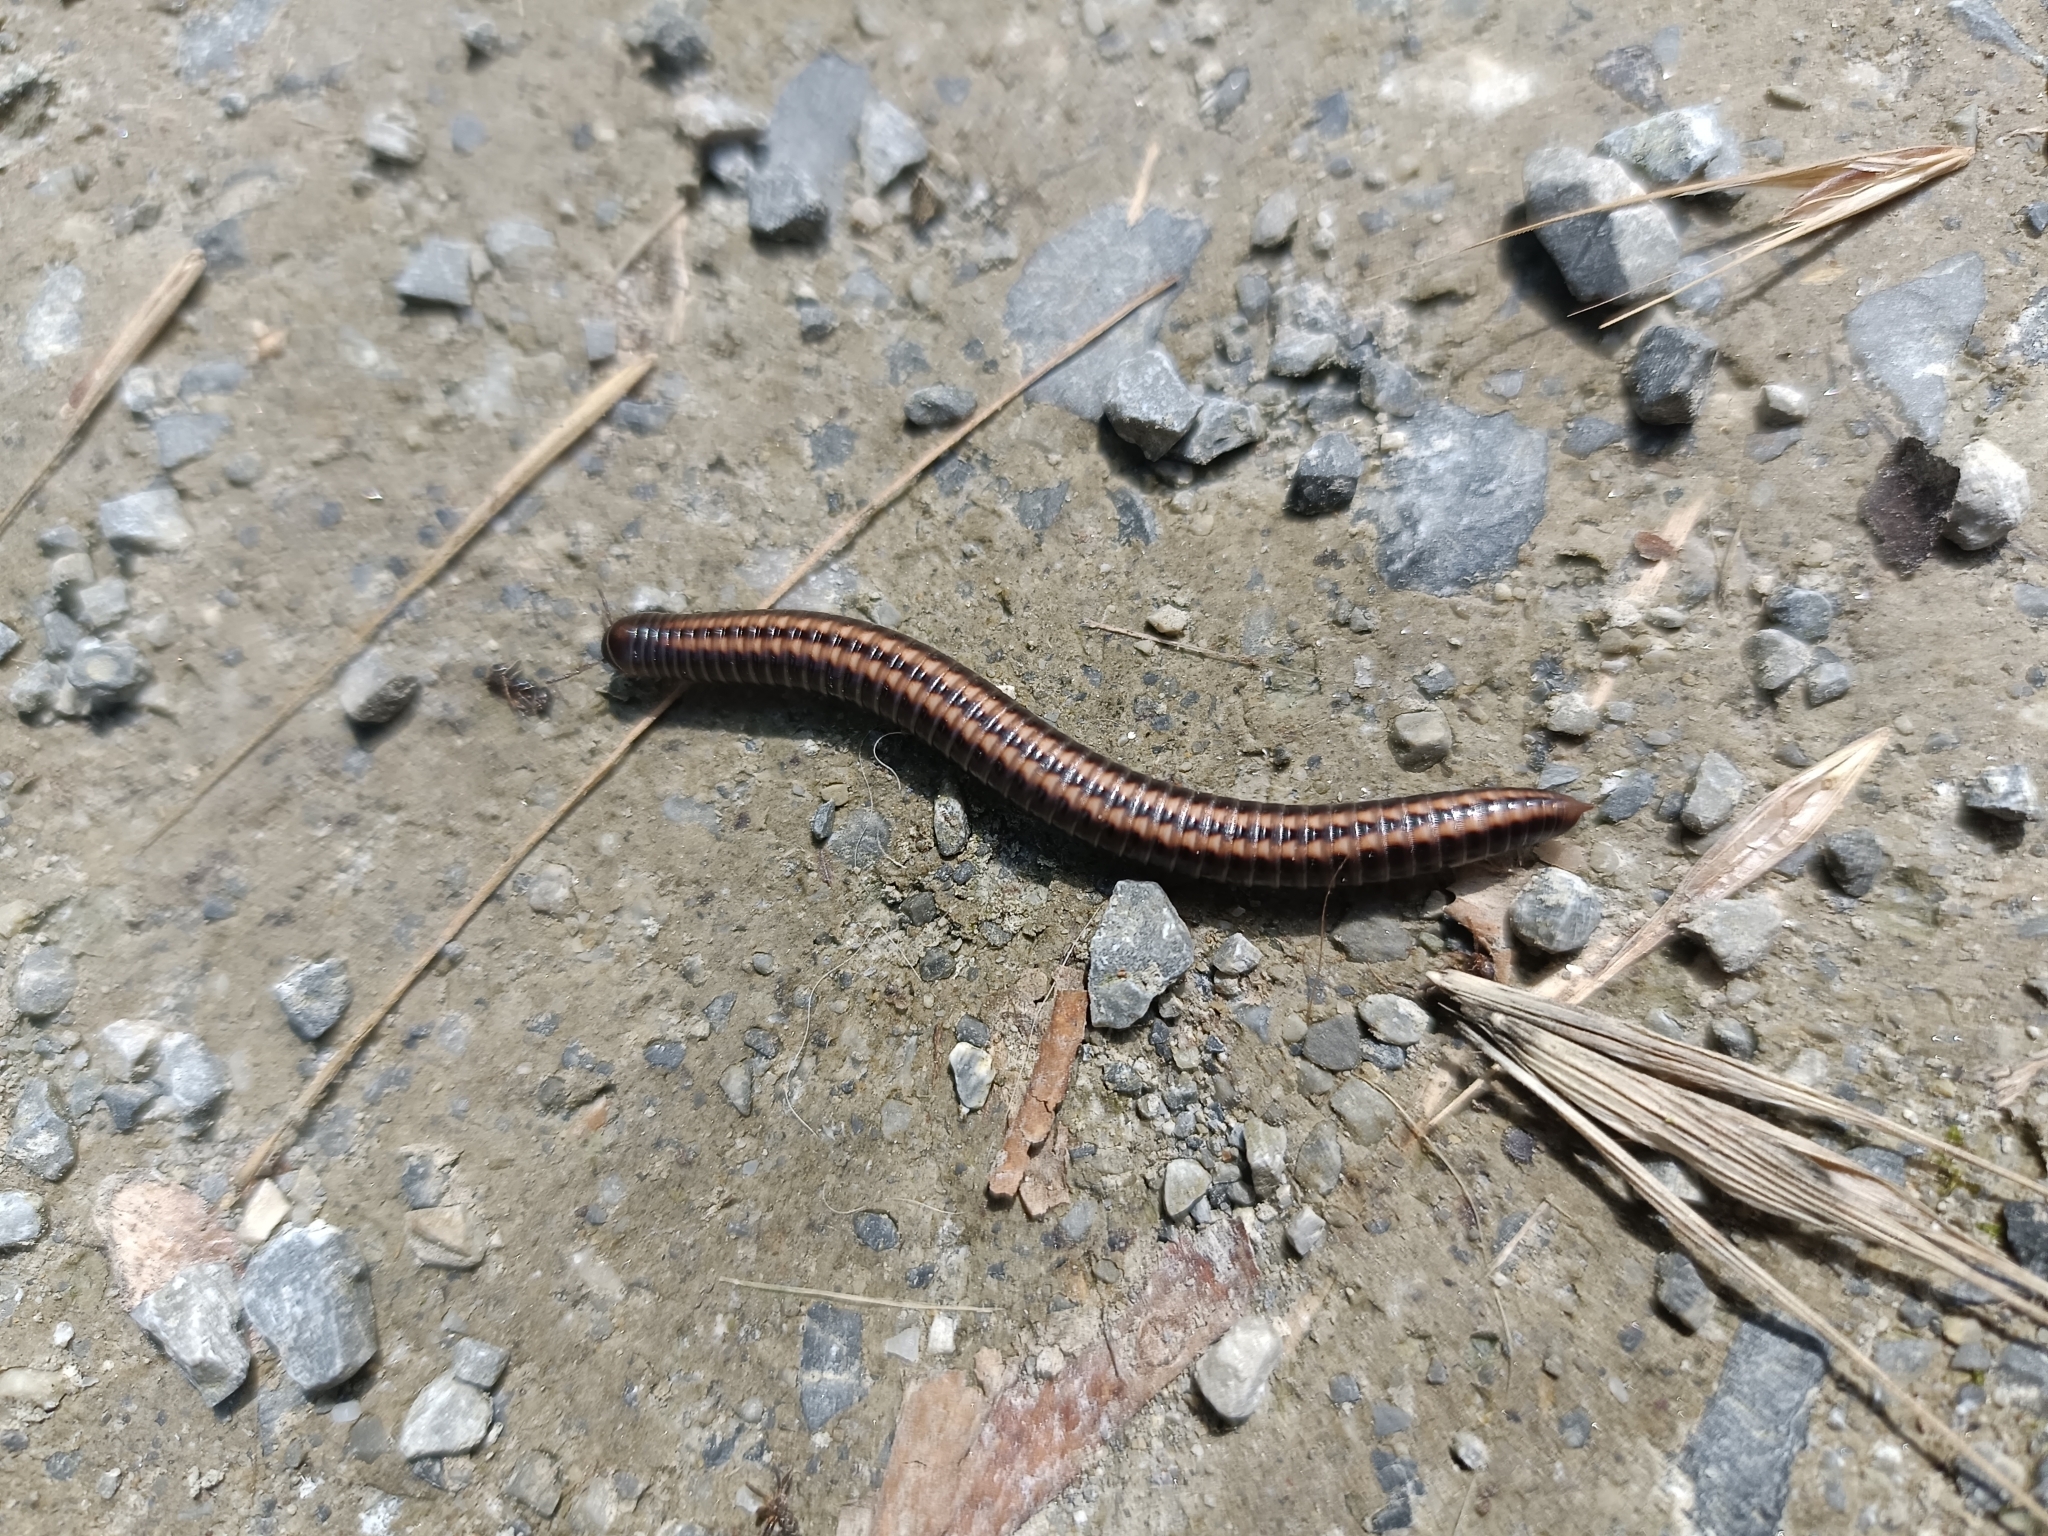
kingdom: Animalia
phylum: Arthropoda
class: Diplopoda
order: Julida
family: Julidae
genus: Ommatoiulus
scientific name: Ommatoiulus sabulosus
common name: Striped millipede
